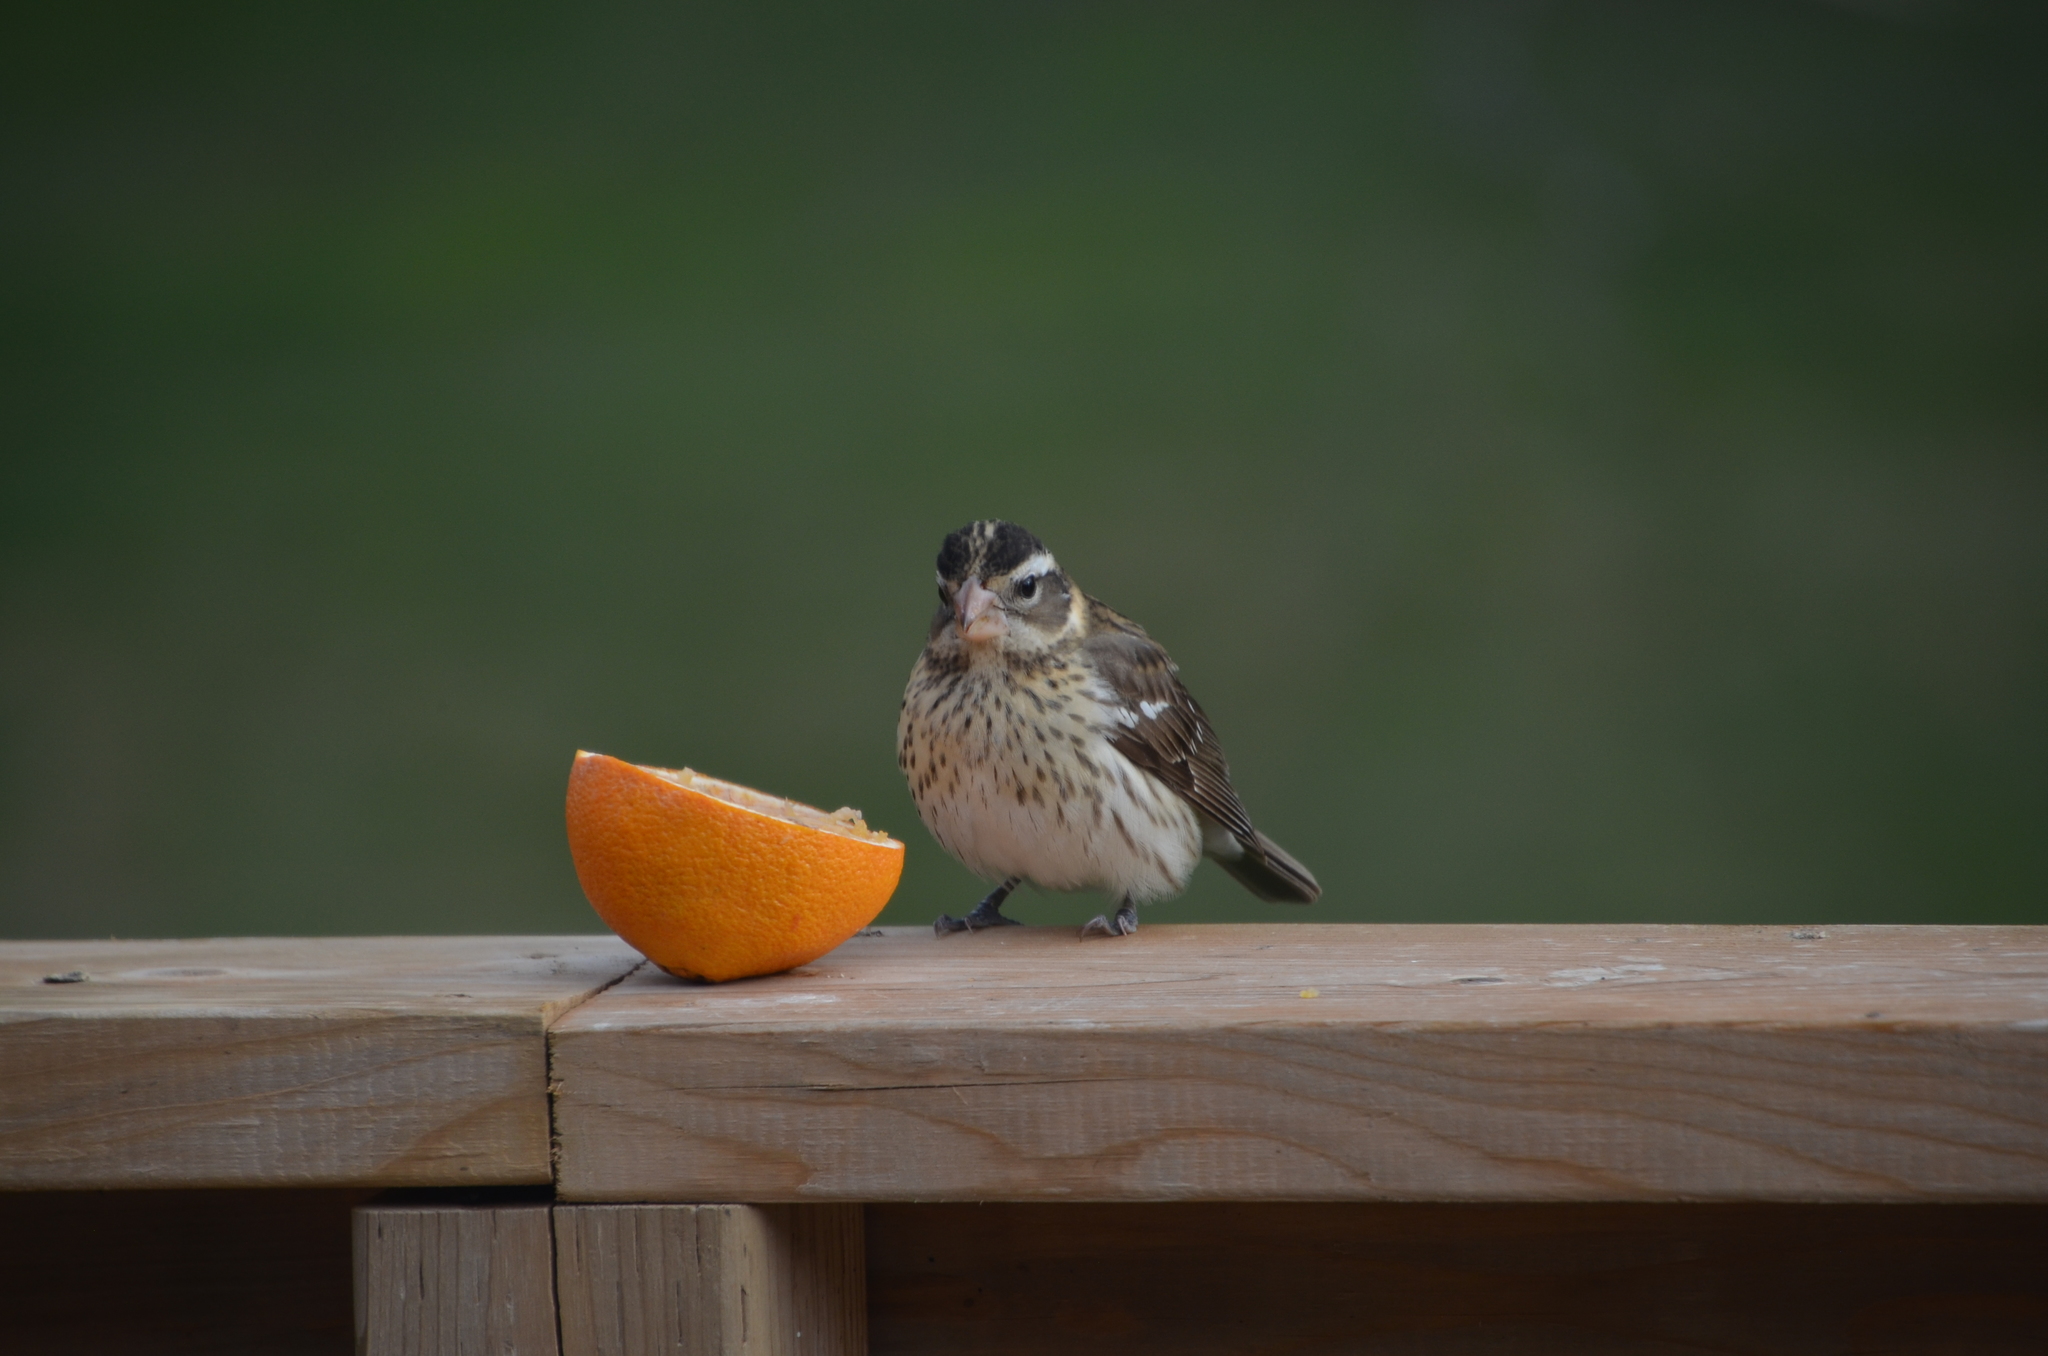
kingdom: Animalia
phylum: Chordata
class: Aves
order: Passeriformes
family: Cardinalidae
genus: Pheucticus
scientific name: Pheucticus ludovicianus
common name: Rose-breasted grosbeak
